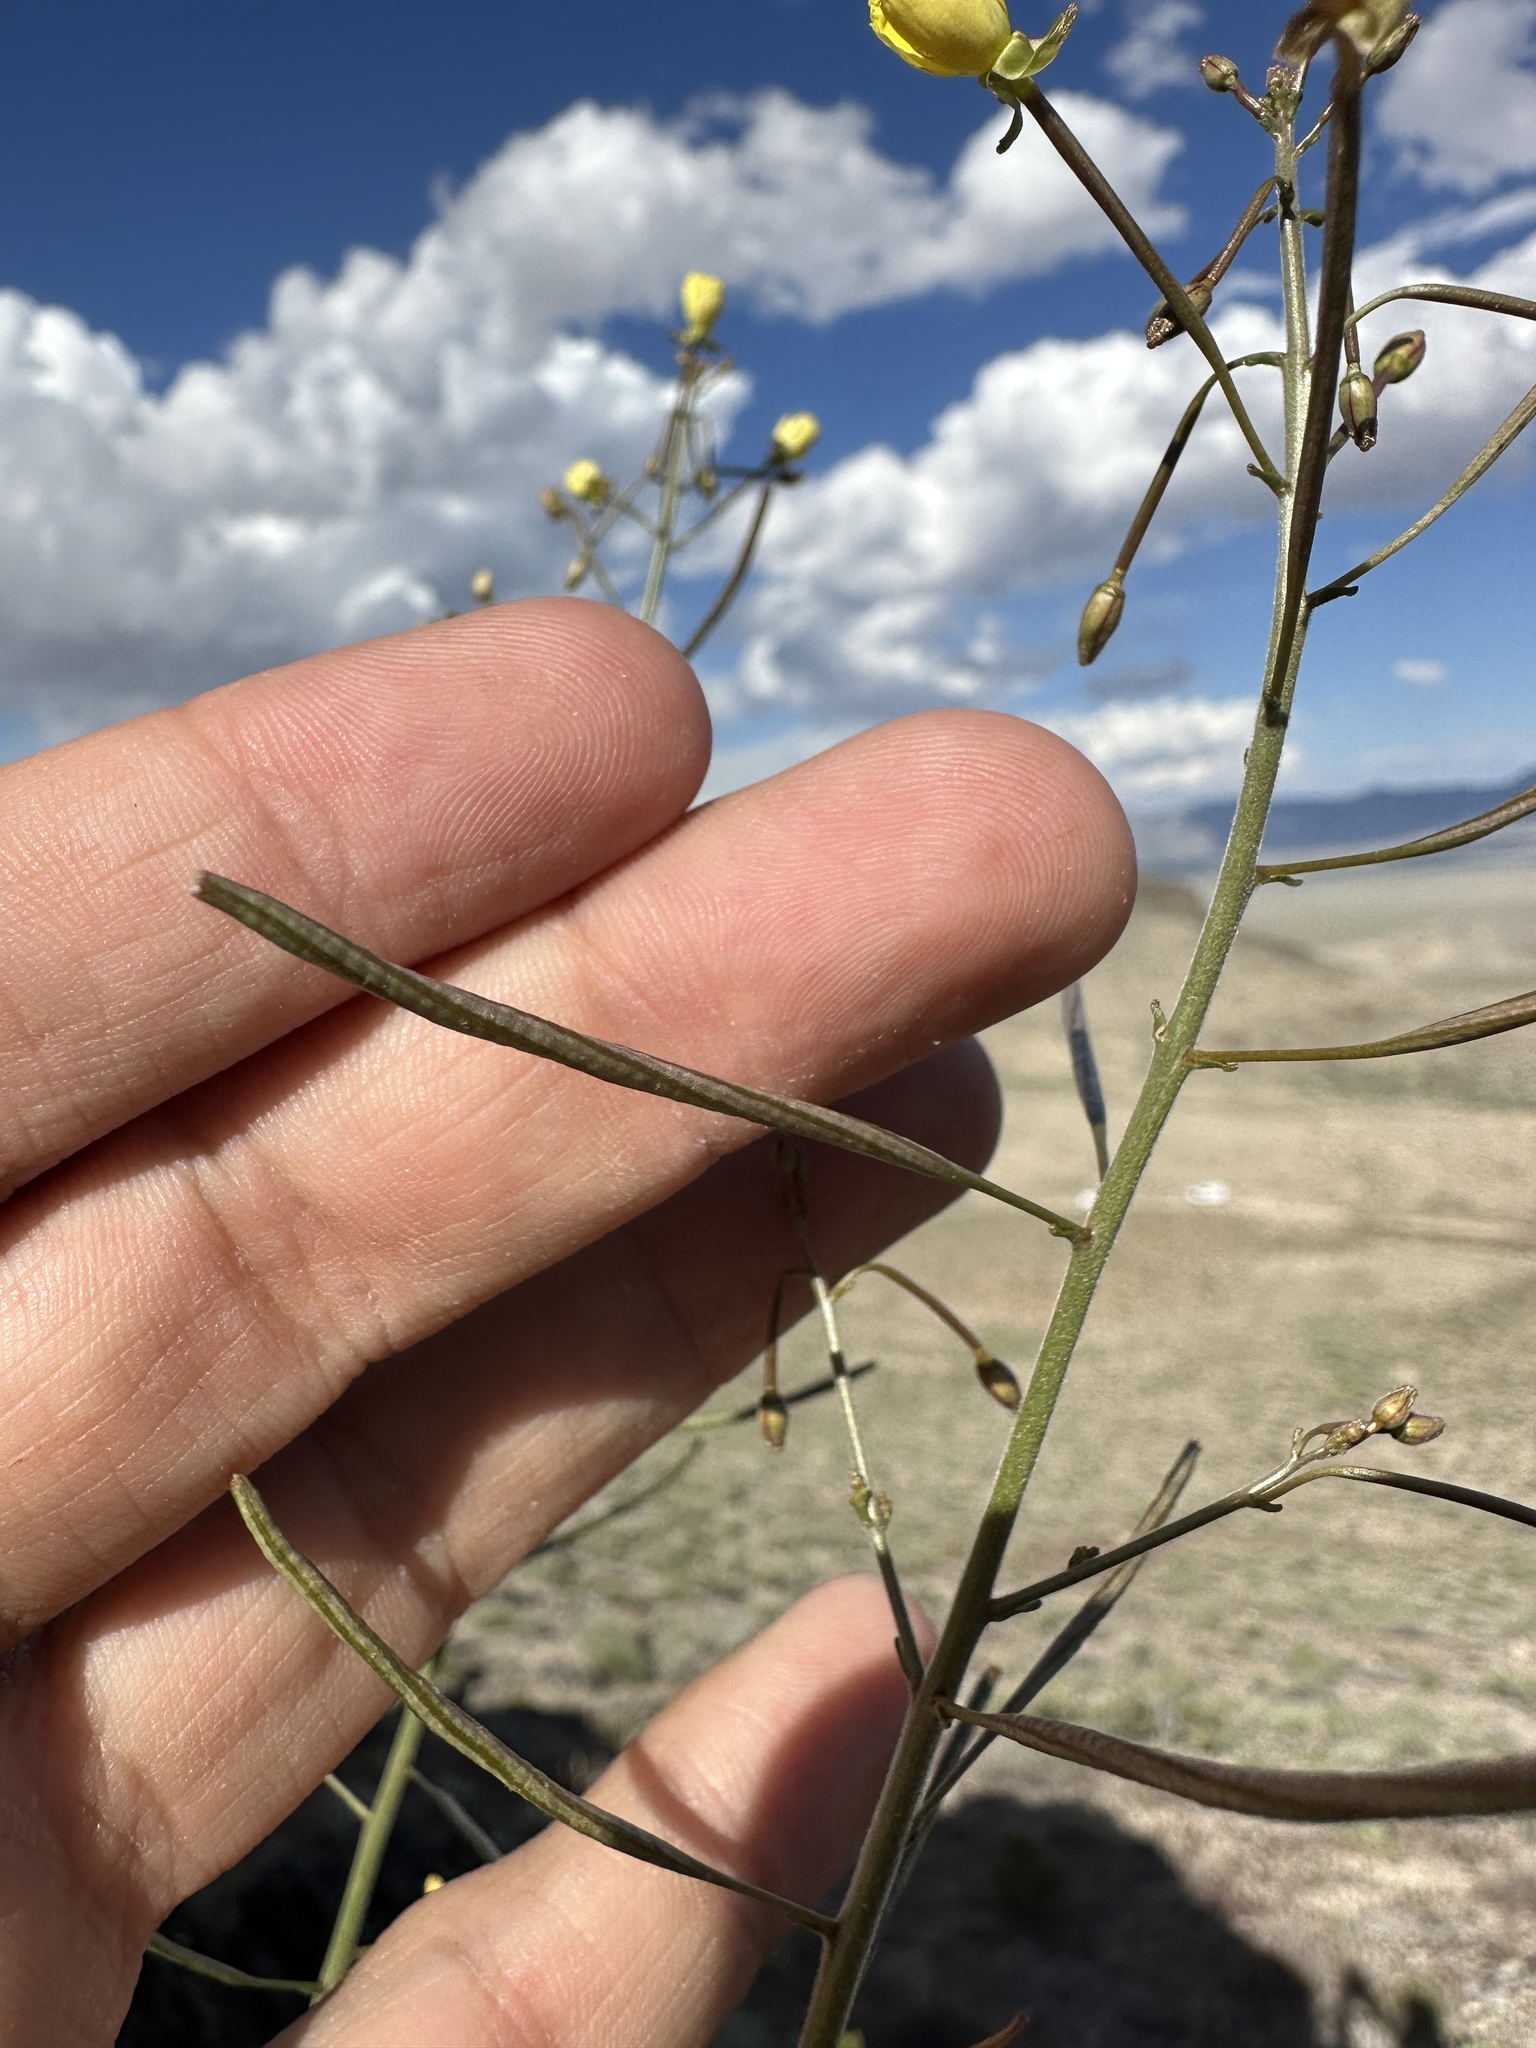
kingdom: Plantae
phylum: Tracheophyta
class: Magnoliopsida
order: Myrtales
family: Onagraceae
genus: Chylismia
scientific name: Chylismia walkeri
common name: Walker's suncup
